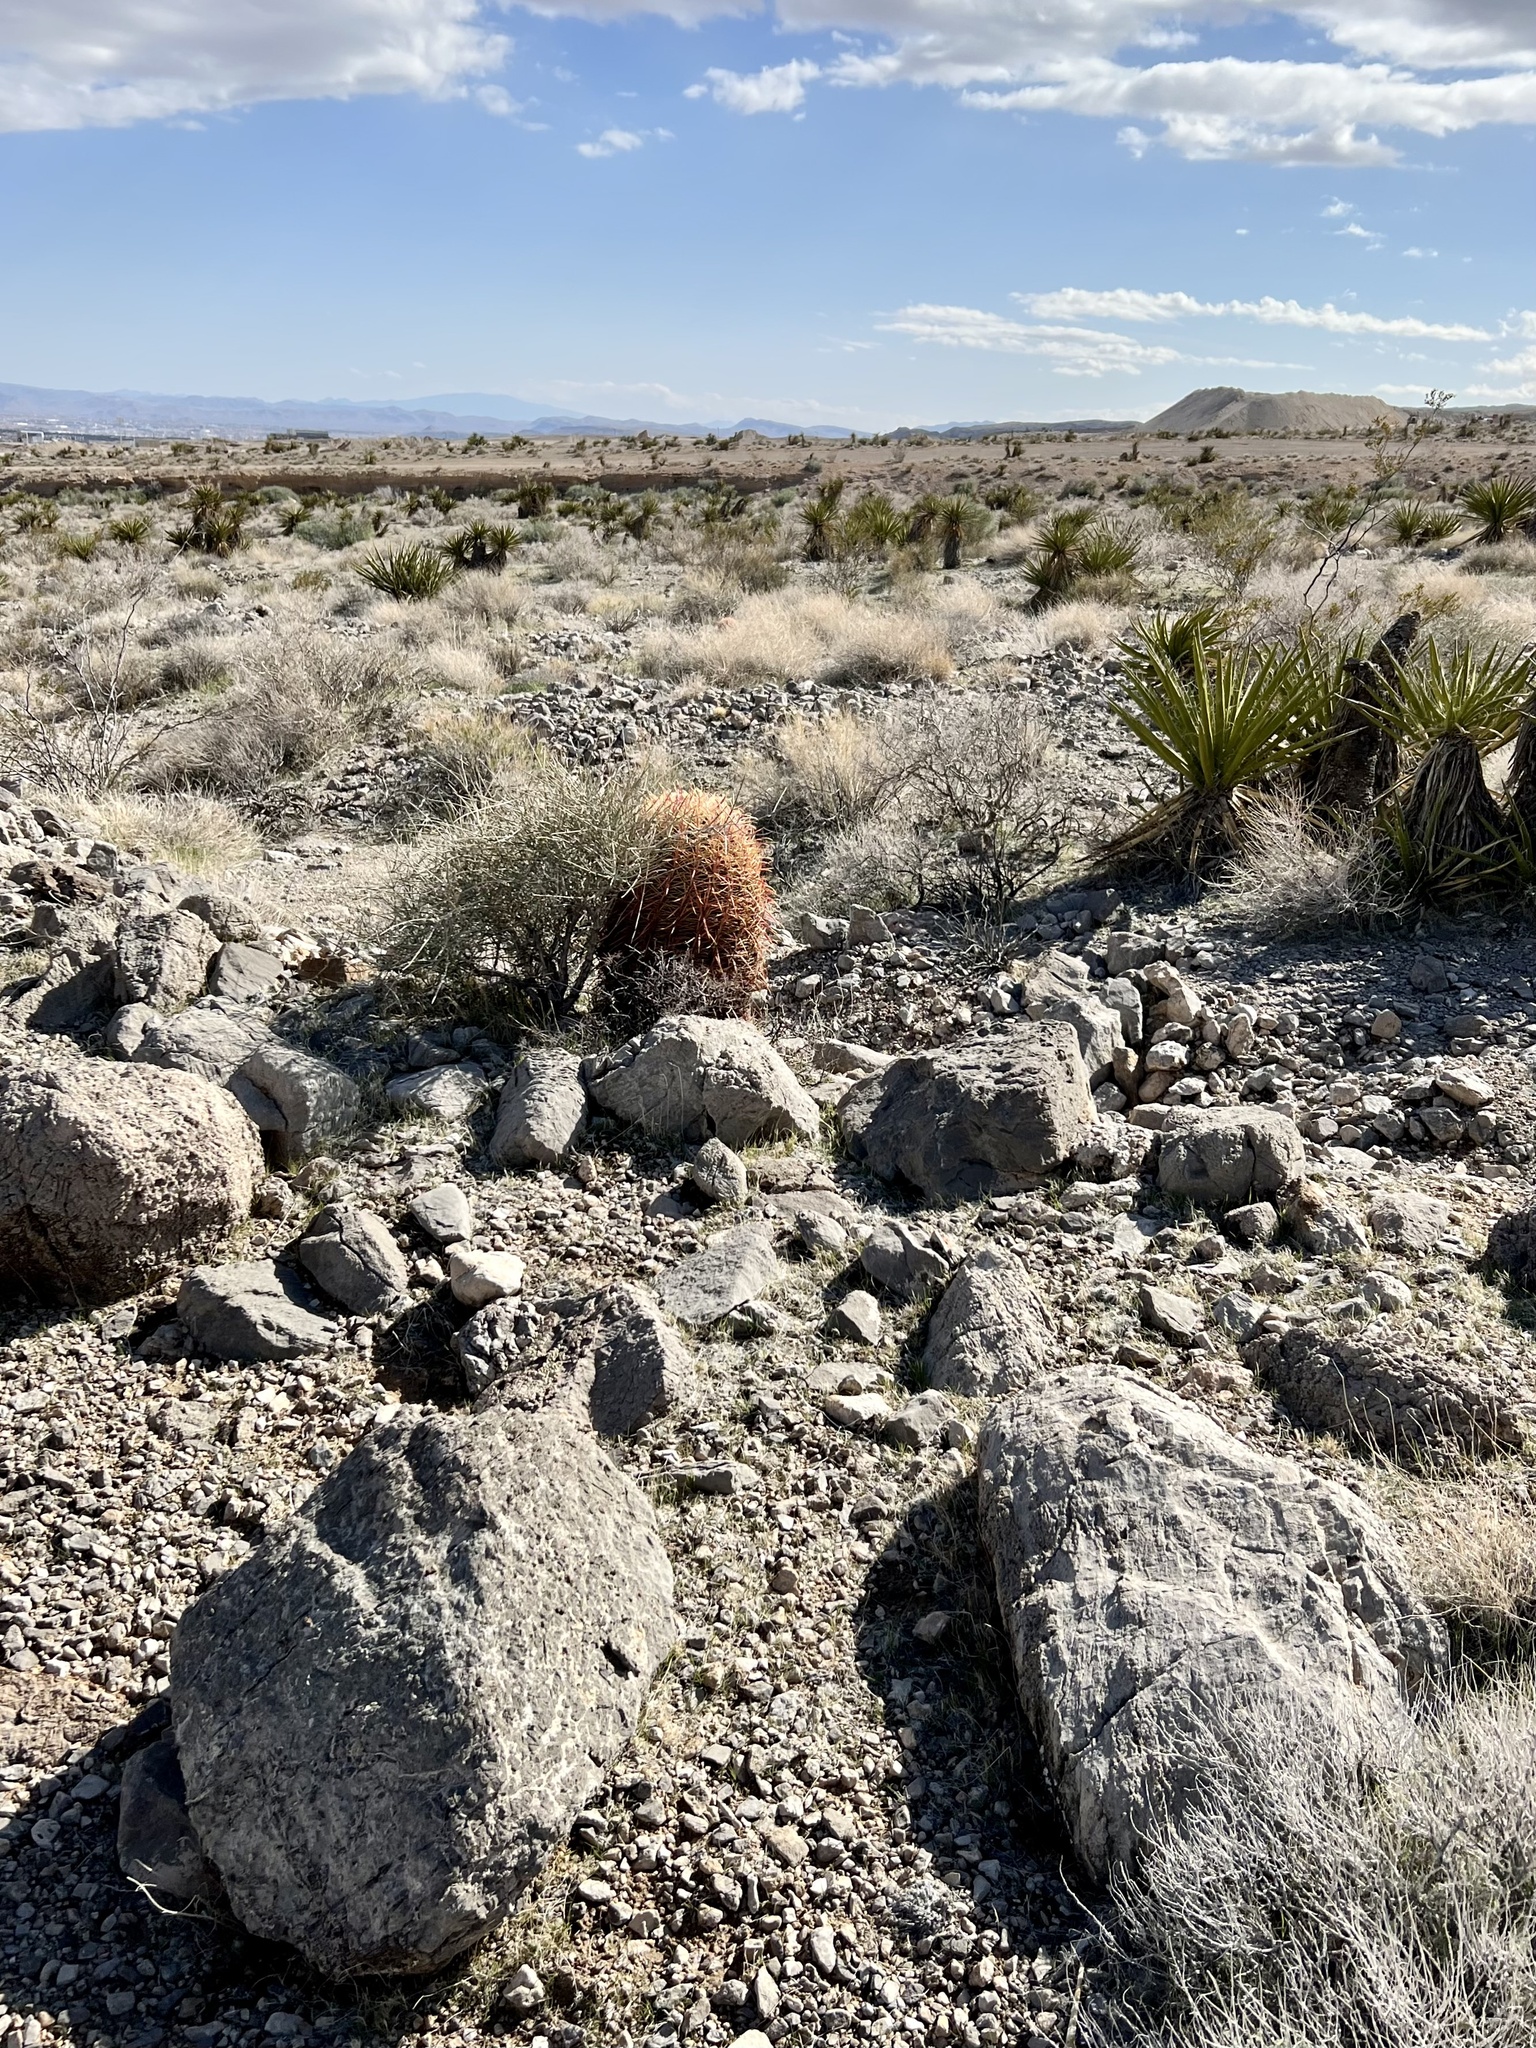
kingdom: Plantae
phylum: Tracheophyta
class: Magnoliopsida
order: Caryophyllales
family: Cactaceae
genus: Ferocactus
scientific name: Ferocactus cylindraceus
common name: California barrel cactus
